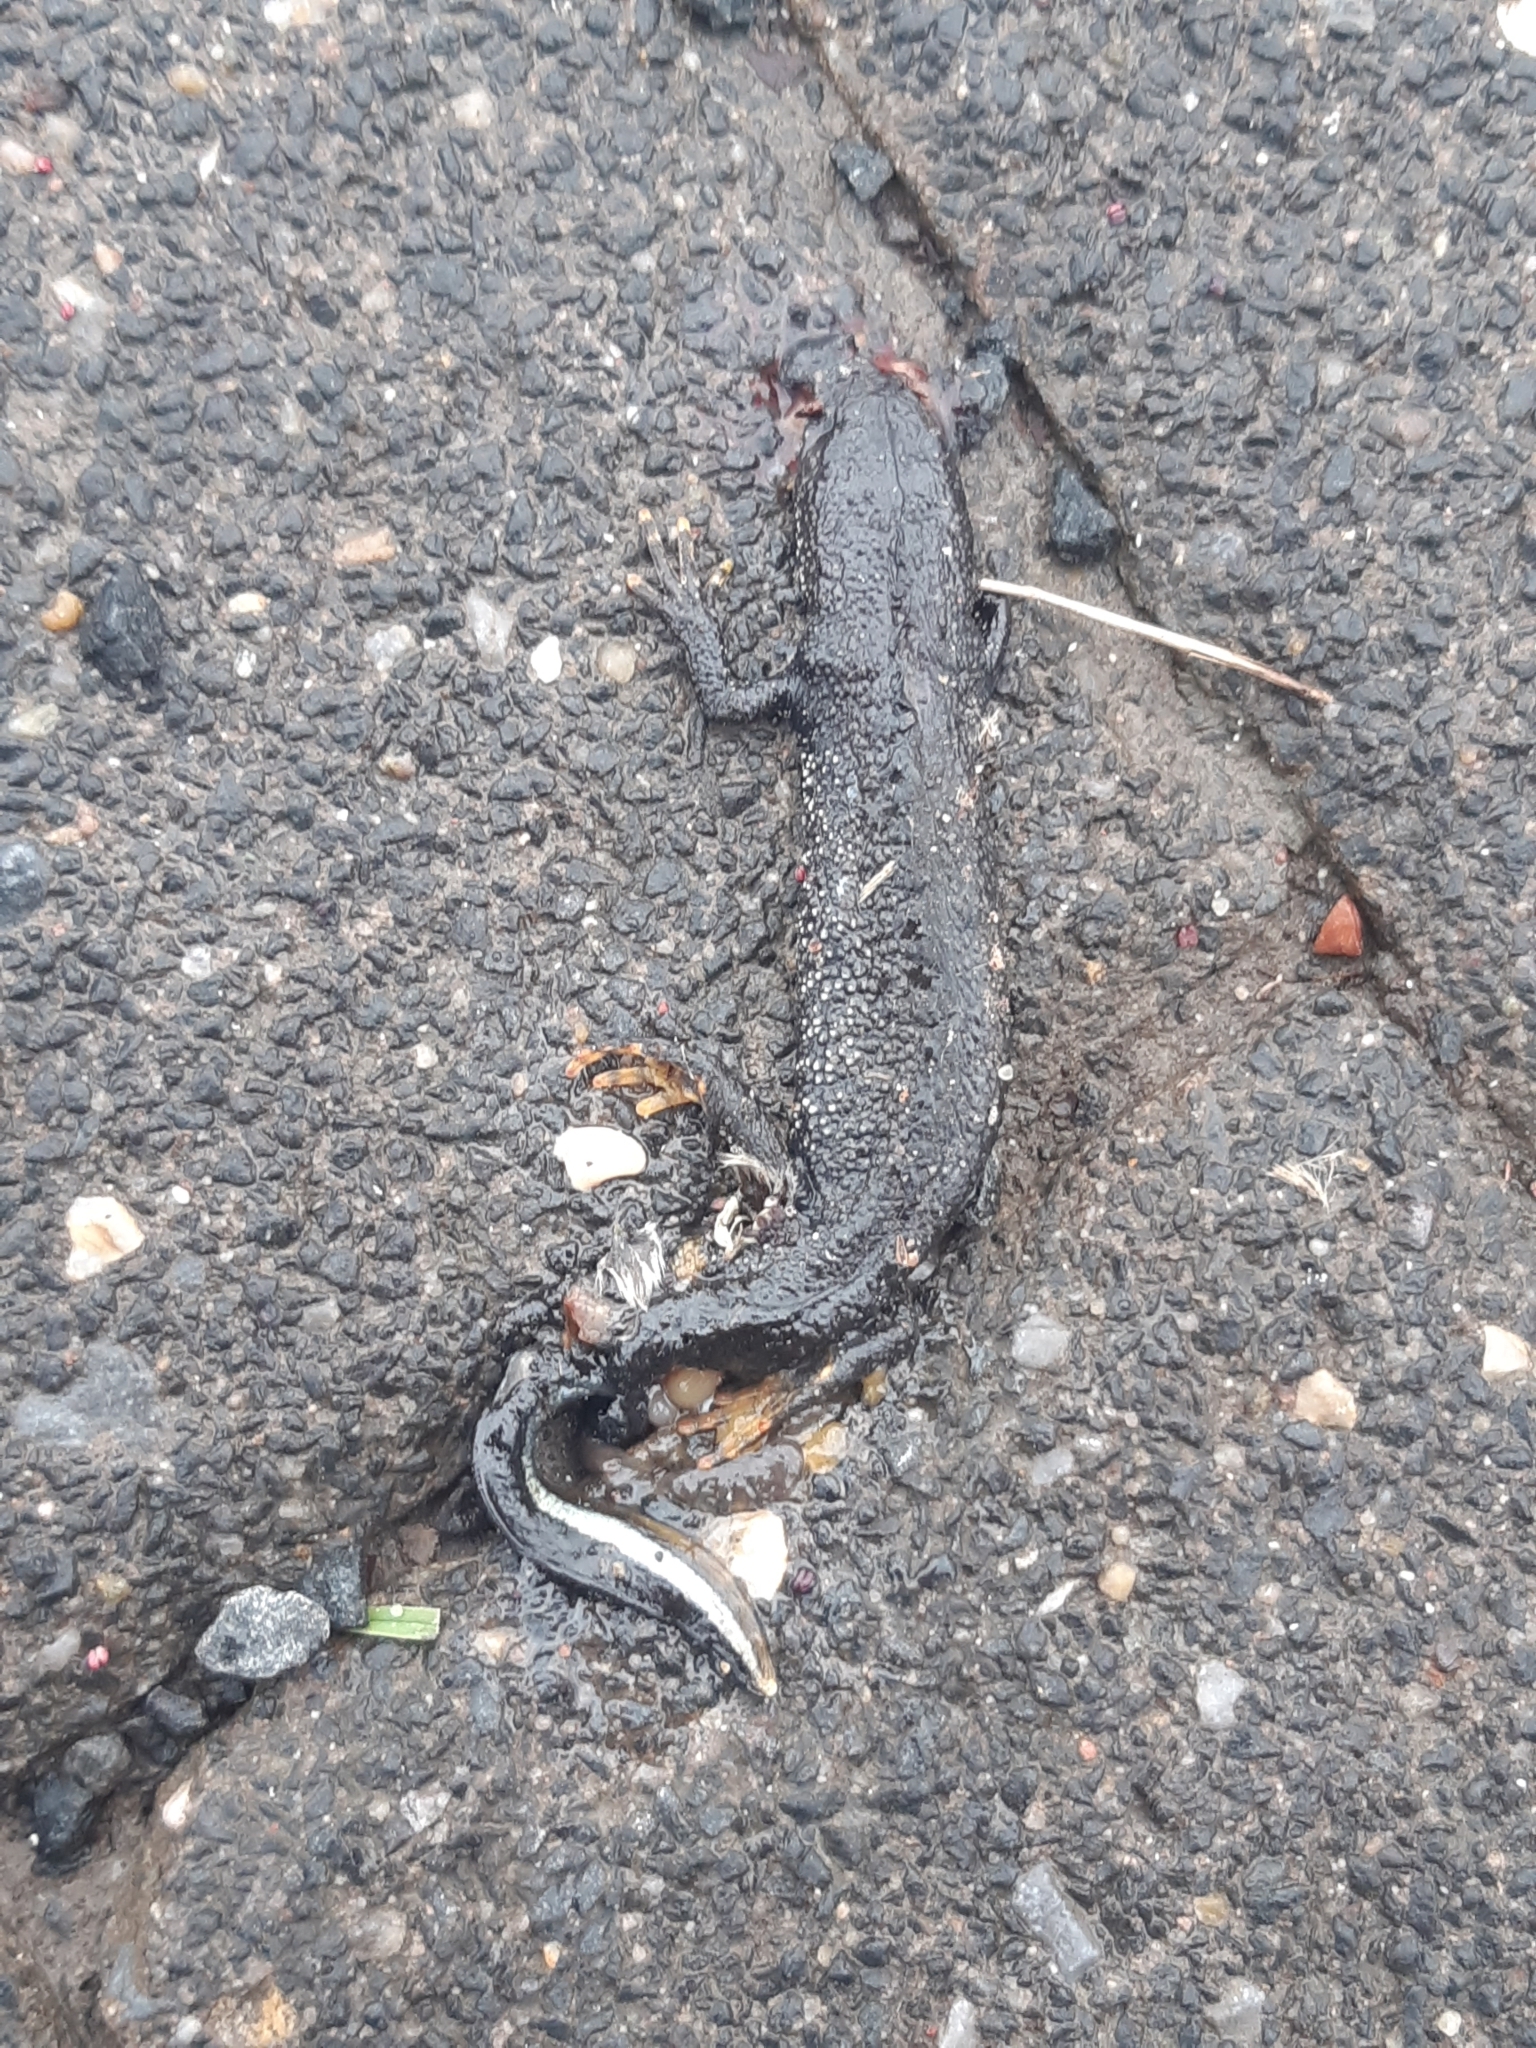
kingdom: Animalia
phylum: Chordata
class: Amphibia
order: Caudata
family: Salamandridae
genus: Triturus
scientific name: Triturus cristatus
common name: Crested newt
